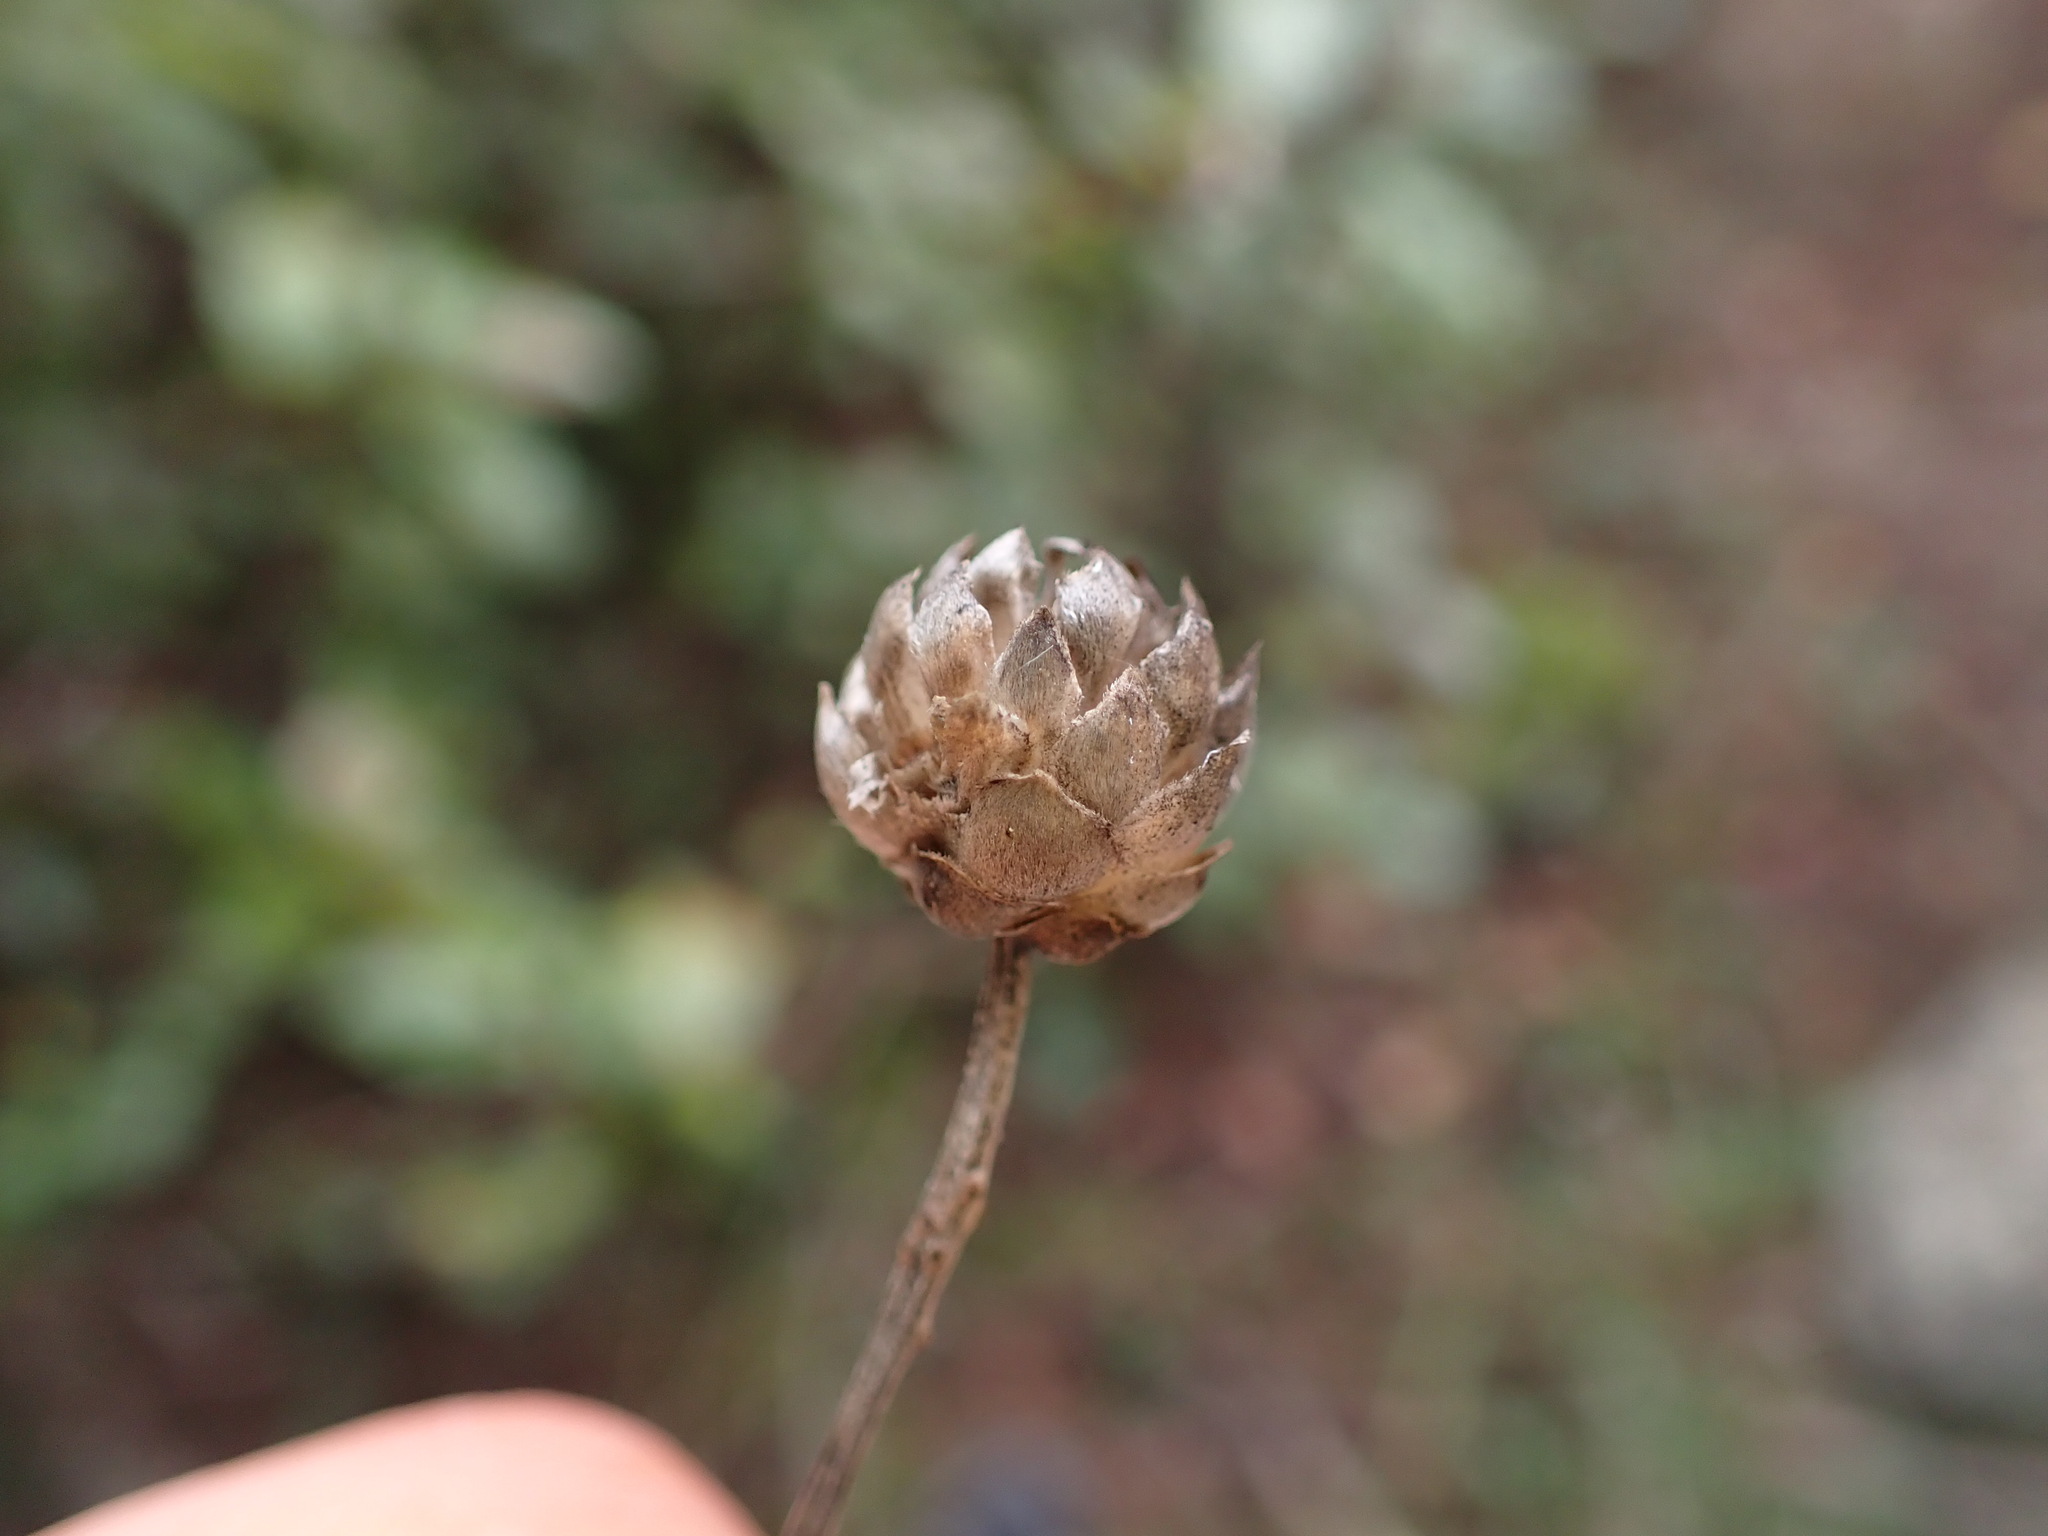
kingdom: Plantae
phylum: Tracheophyta
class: Magnoliopsida
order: Dipsacales
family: Caprifoliaceae
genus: Cephalaria
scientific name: Cephalaria leucantha
